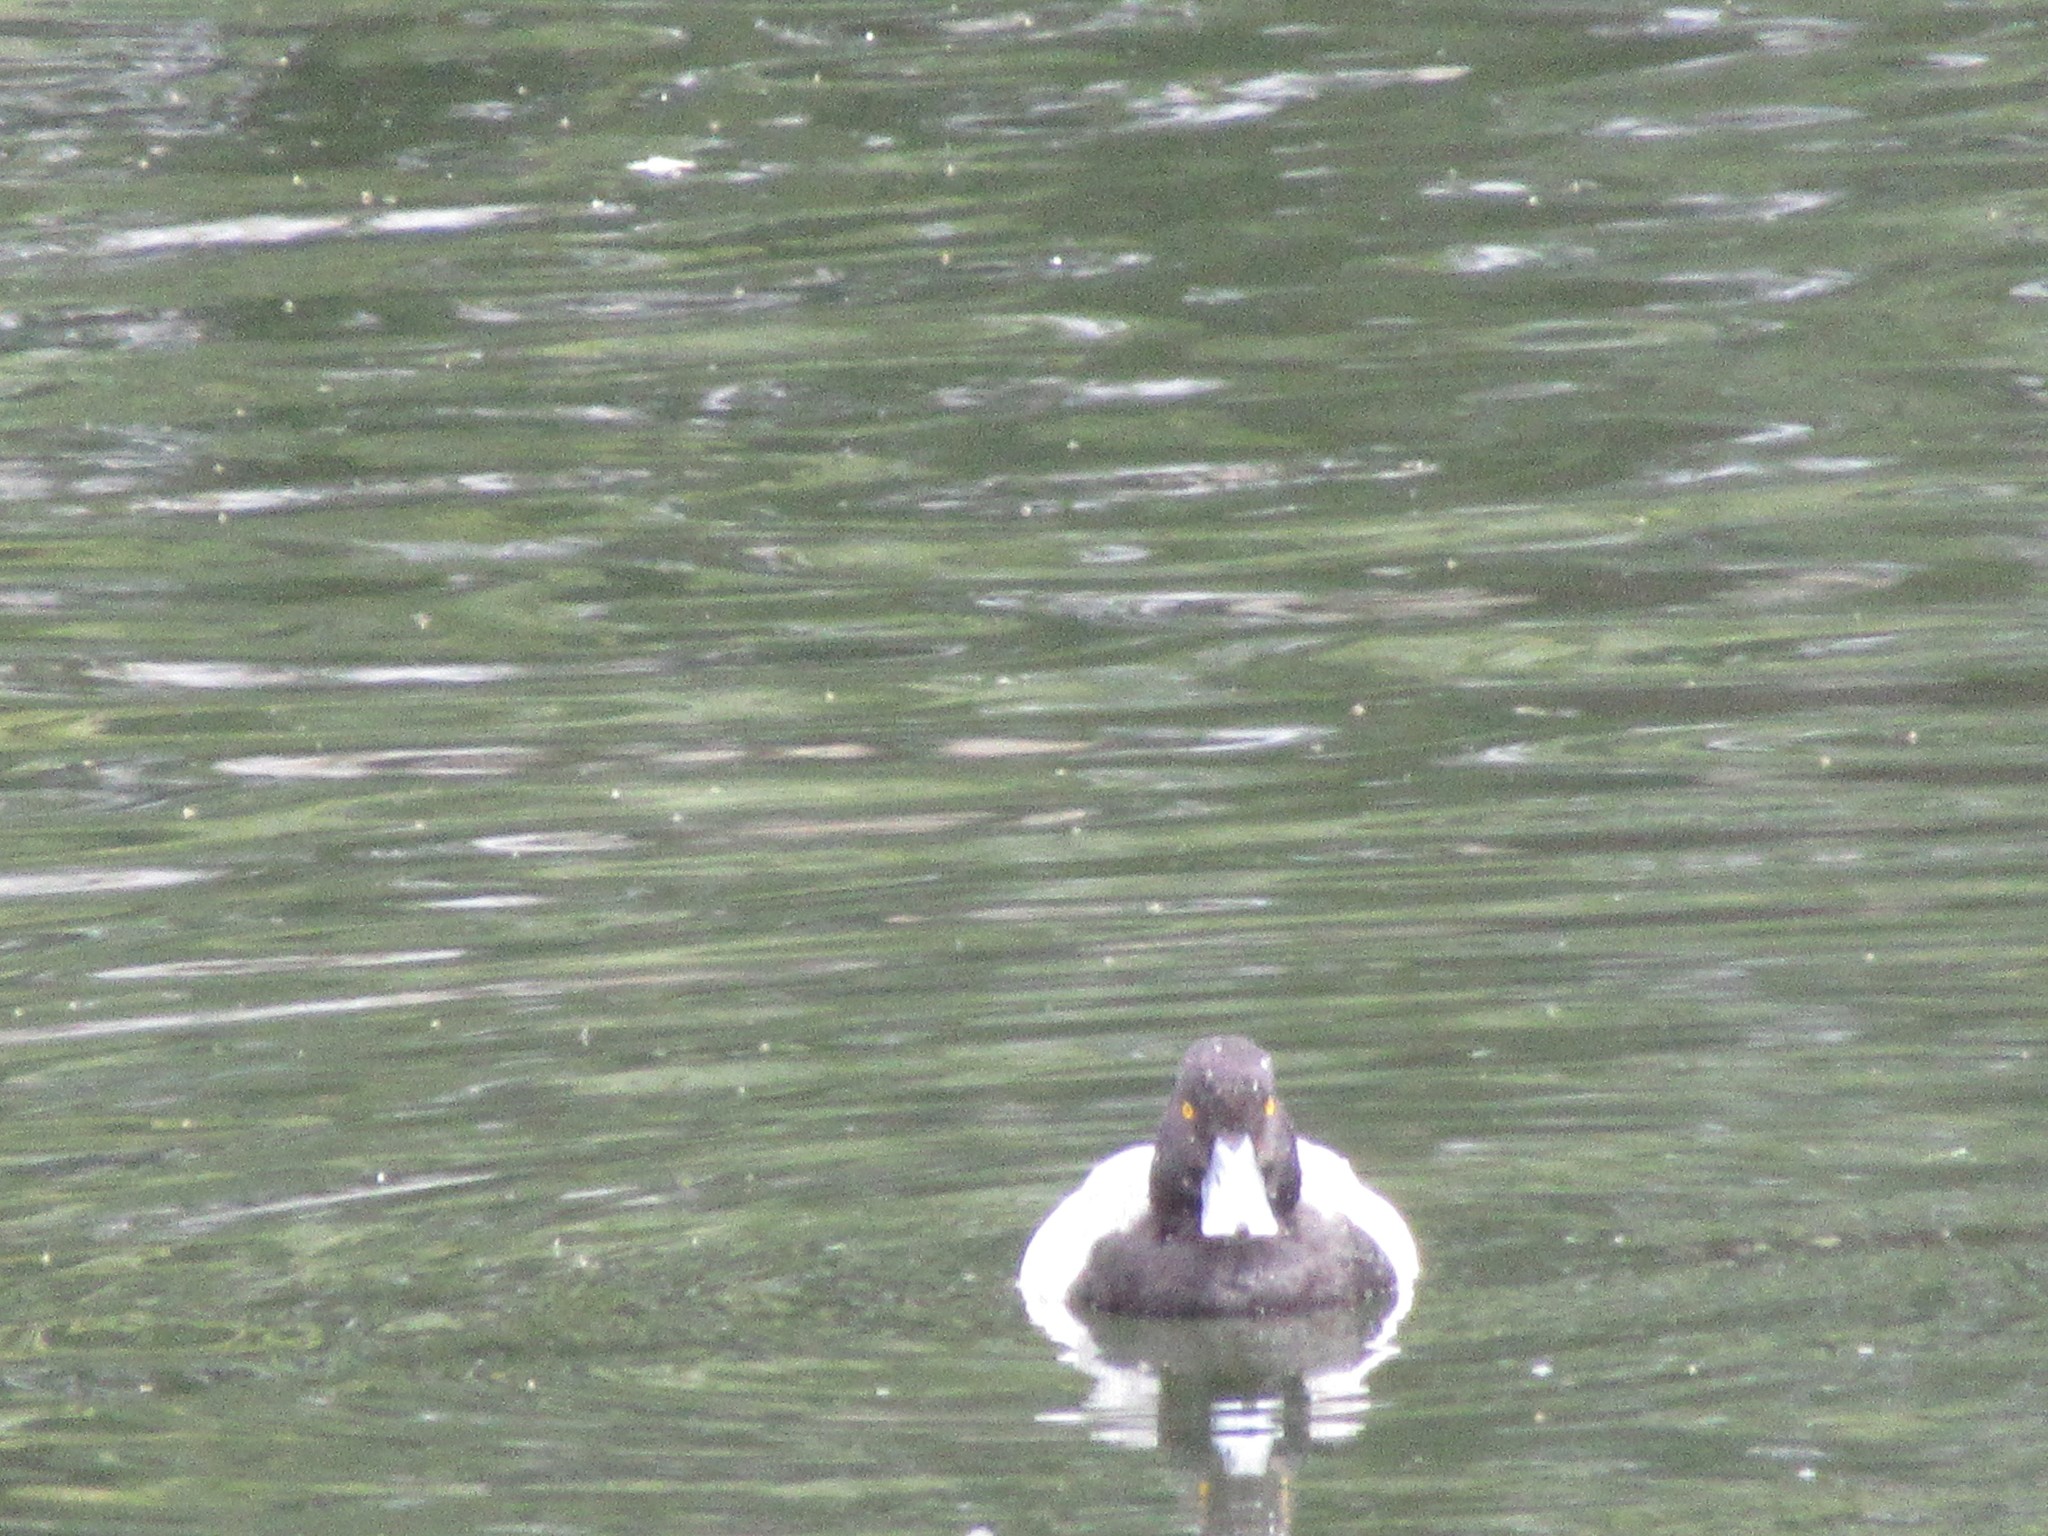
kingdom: Animalia
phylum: Chordata
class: Aves
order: Anseriformes
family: Anatidae
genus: Aythya
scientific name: Aythya affinis
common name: Lesser scaup
